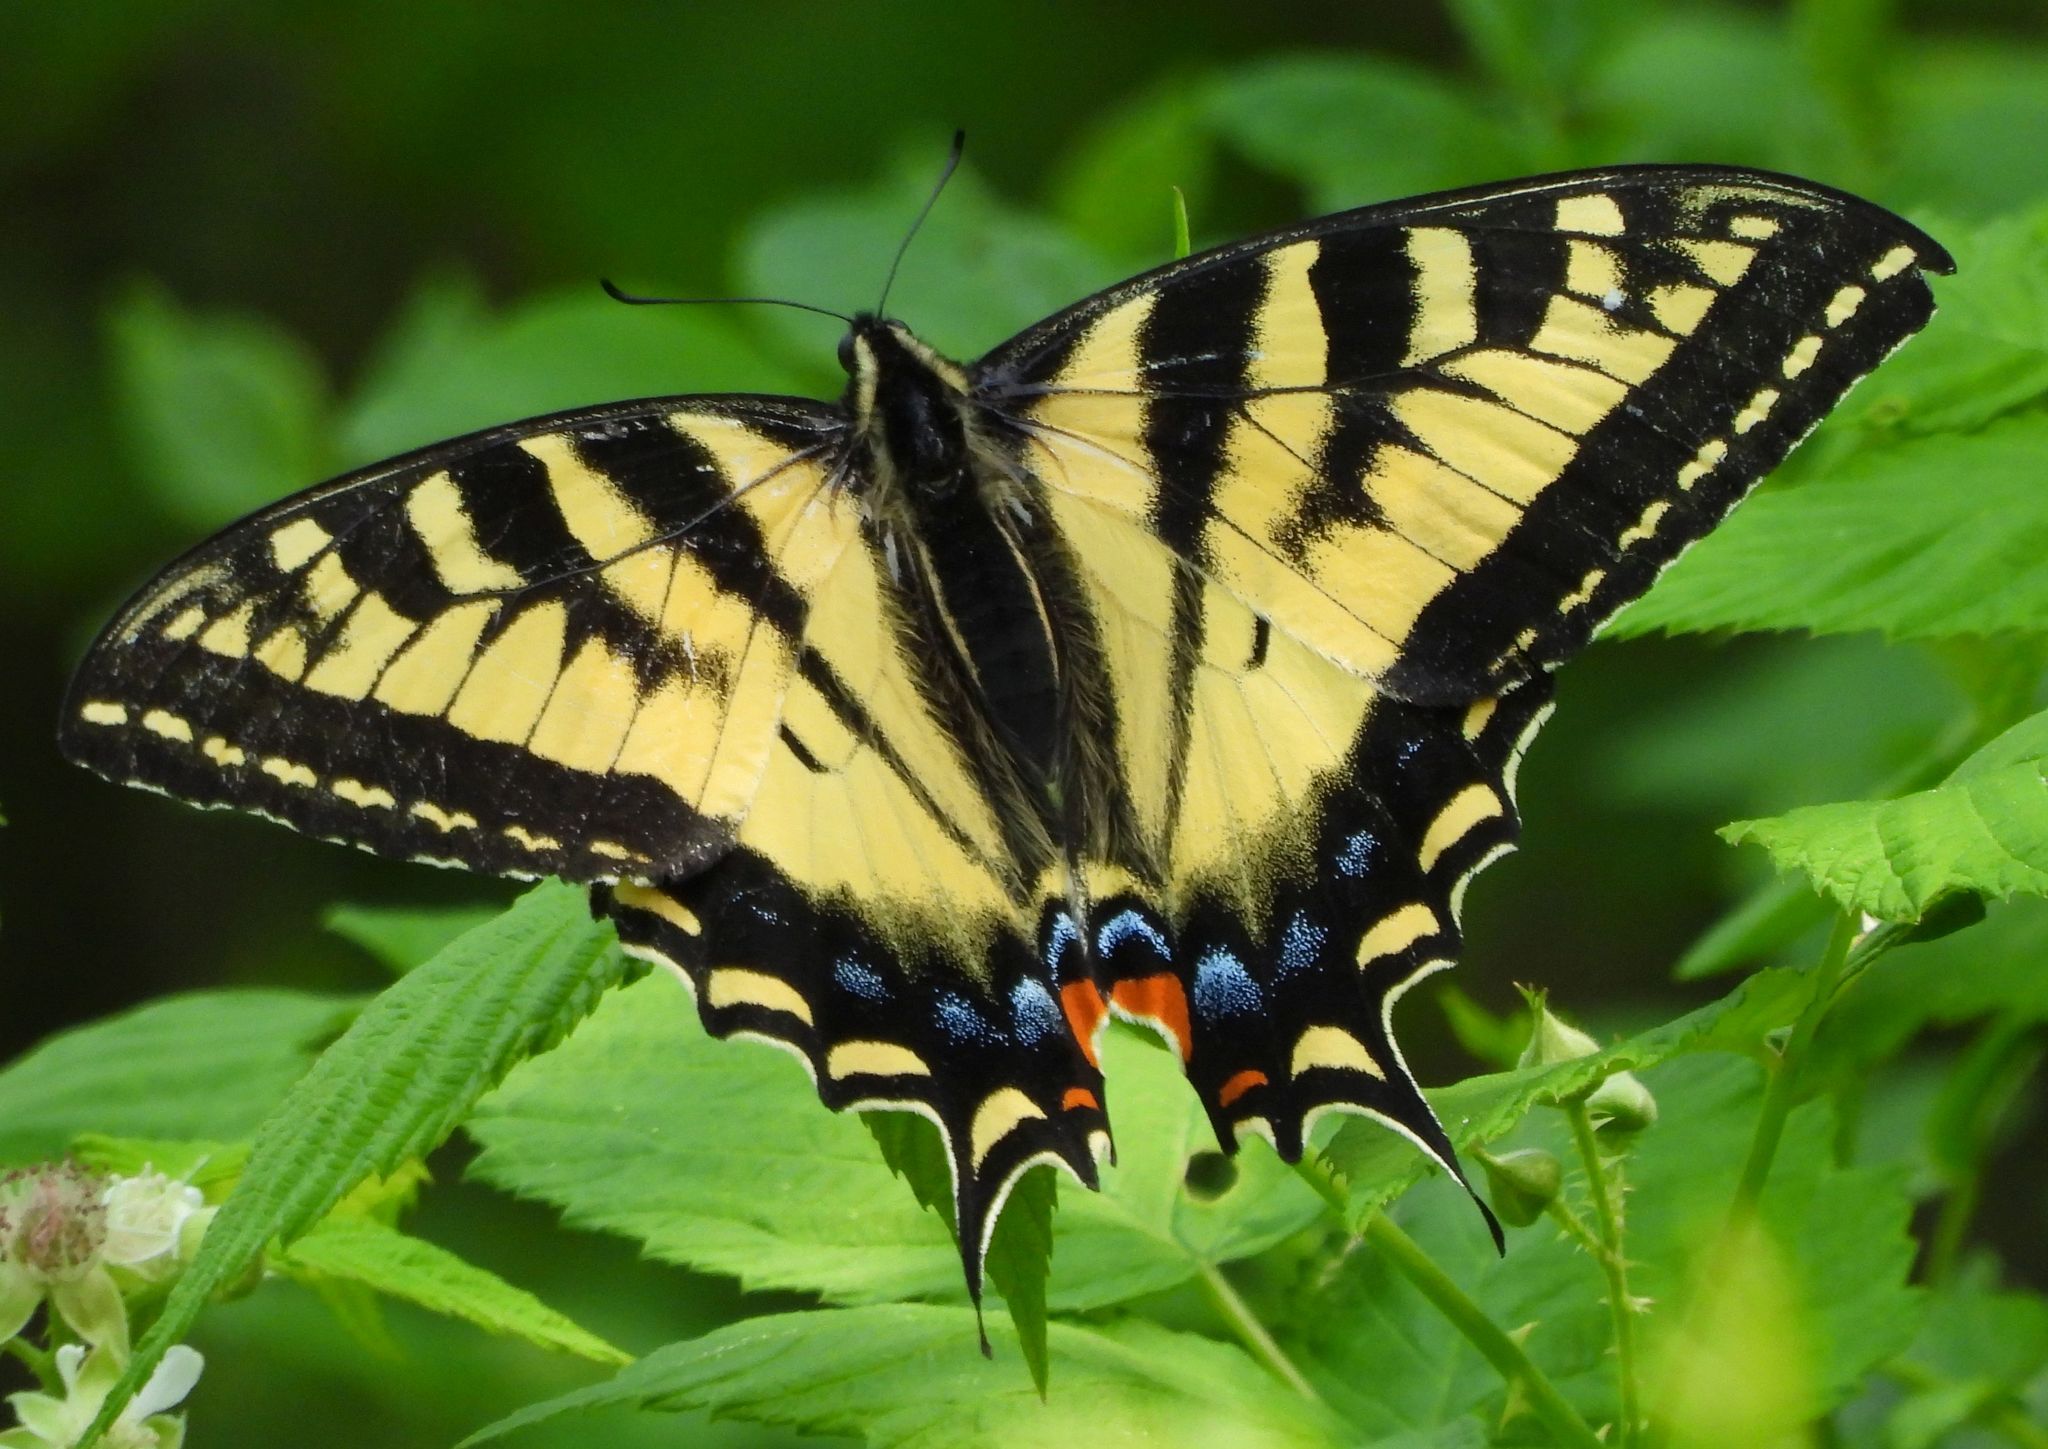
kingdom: Animalia
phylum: Arthropoda
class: Insecta
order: Lepidoptera
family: Papilionidae
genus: Papilio
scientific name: Papilio canadensis
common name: Canadian tiger swallowtail
